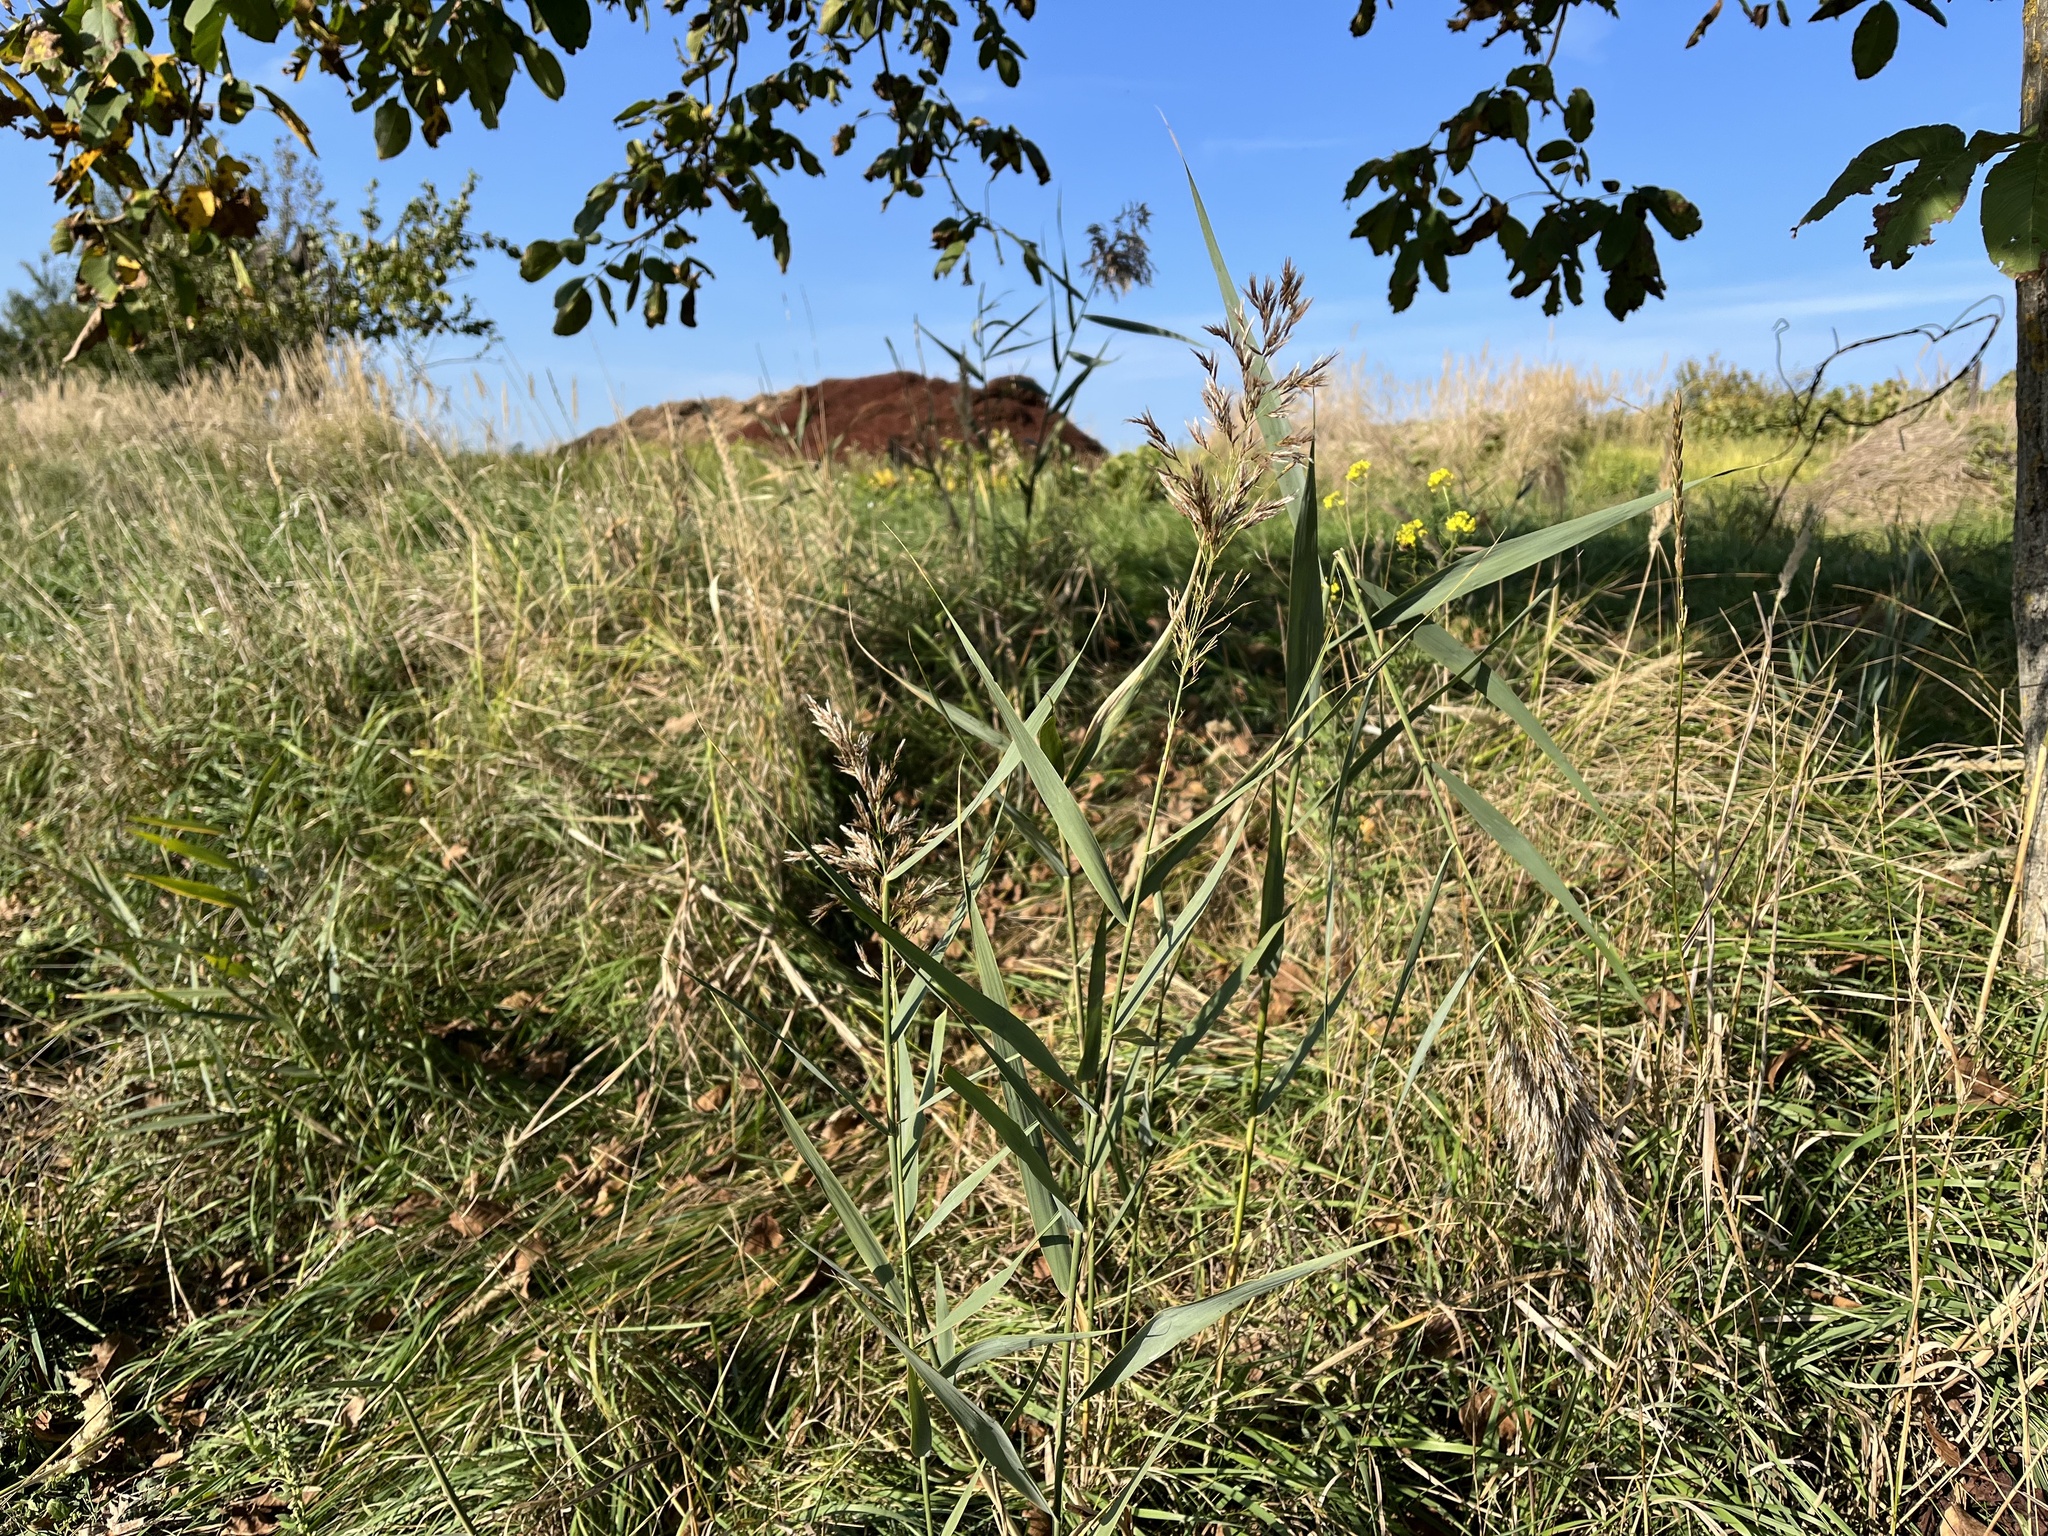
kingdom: Plantae
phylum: Tracheophyta
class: Liliopsida
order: Poales
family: Poaceae
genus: Phragmites
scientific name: Phragmites australis
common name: Common reed
